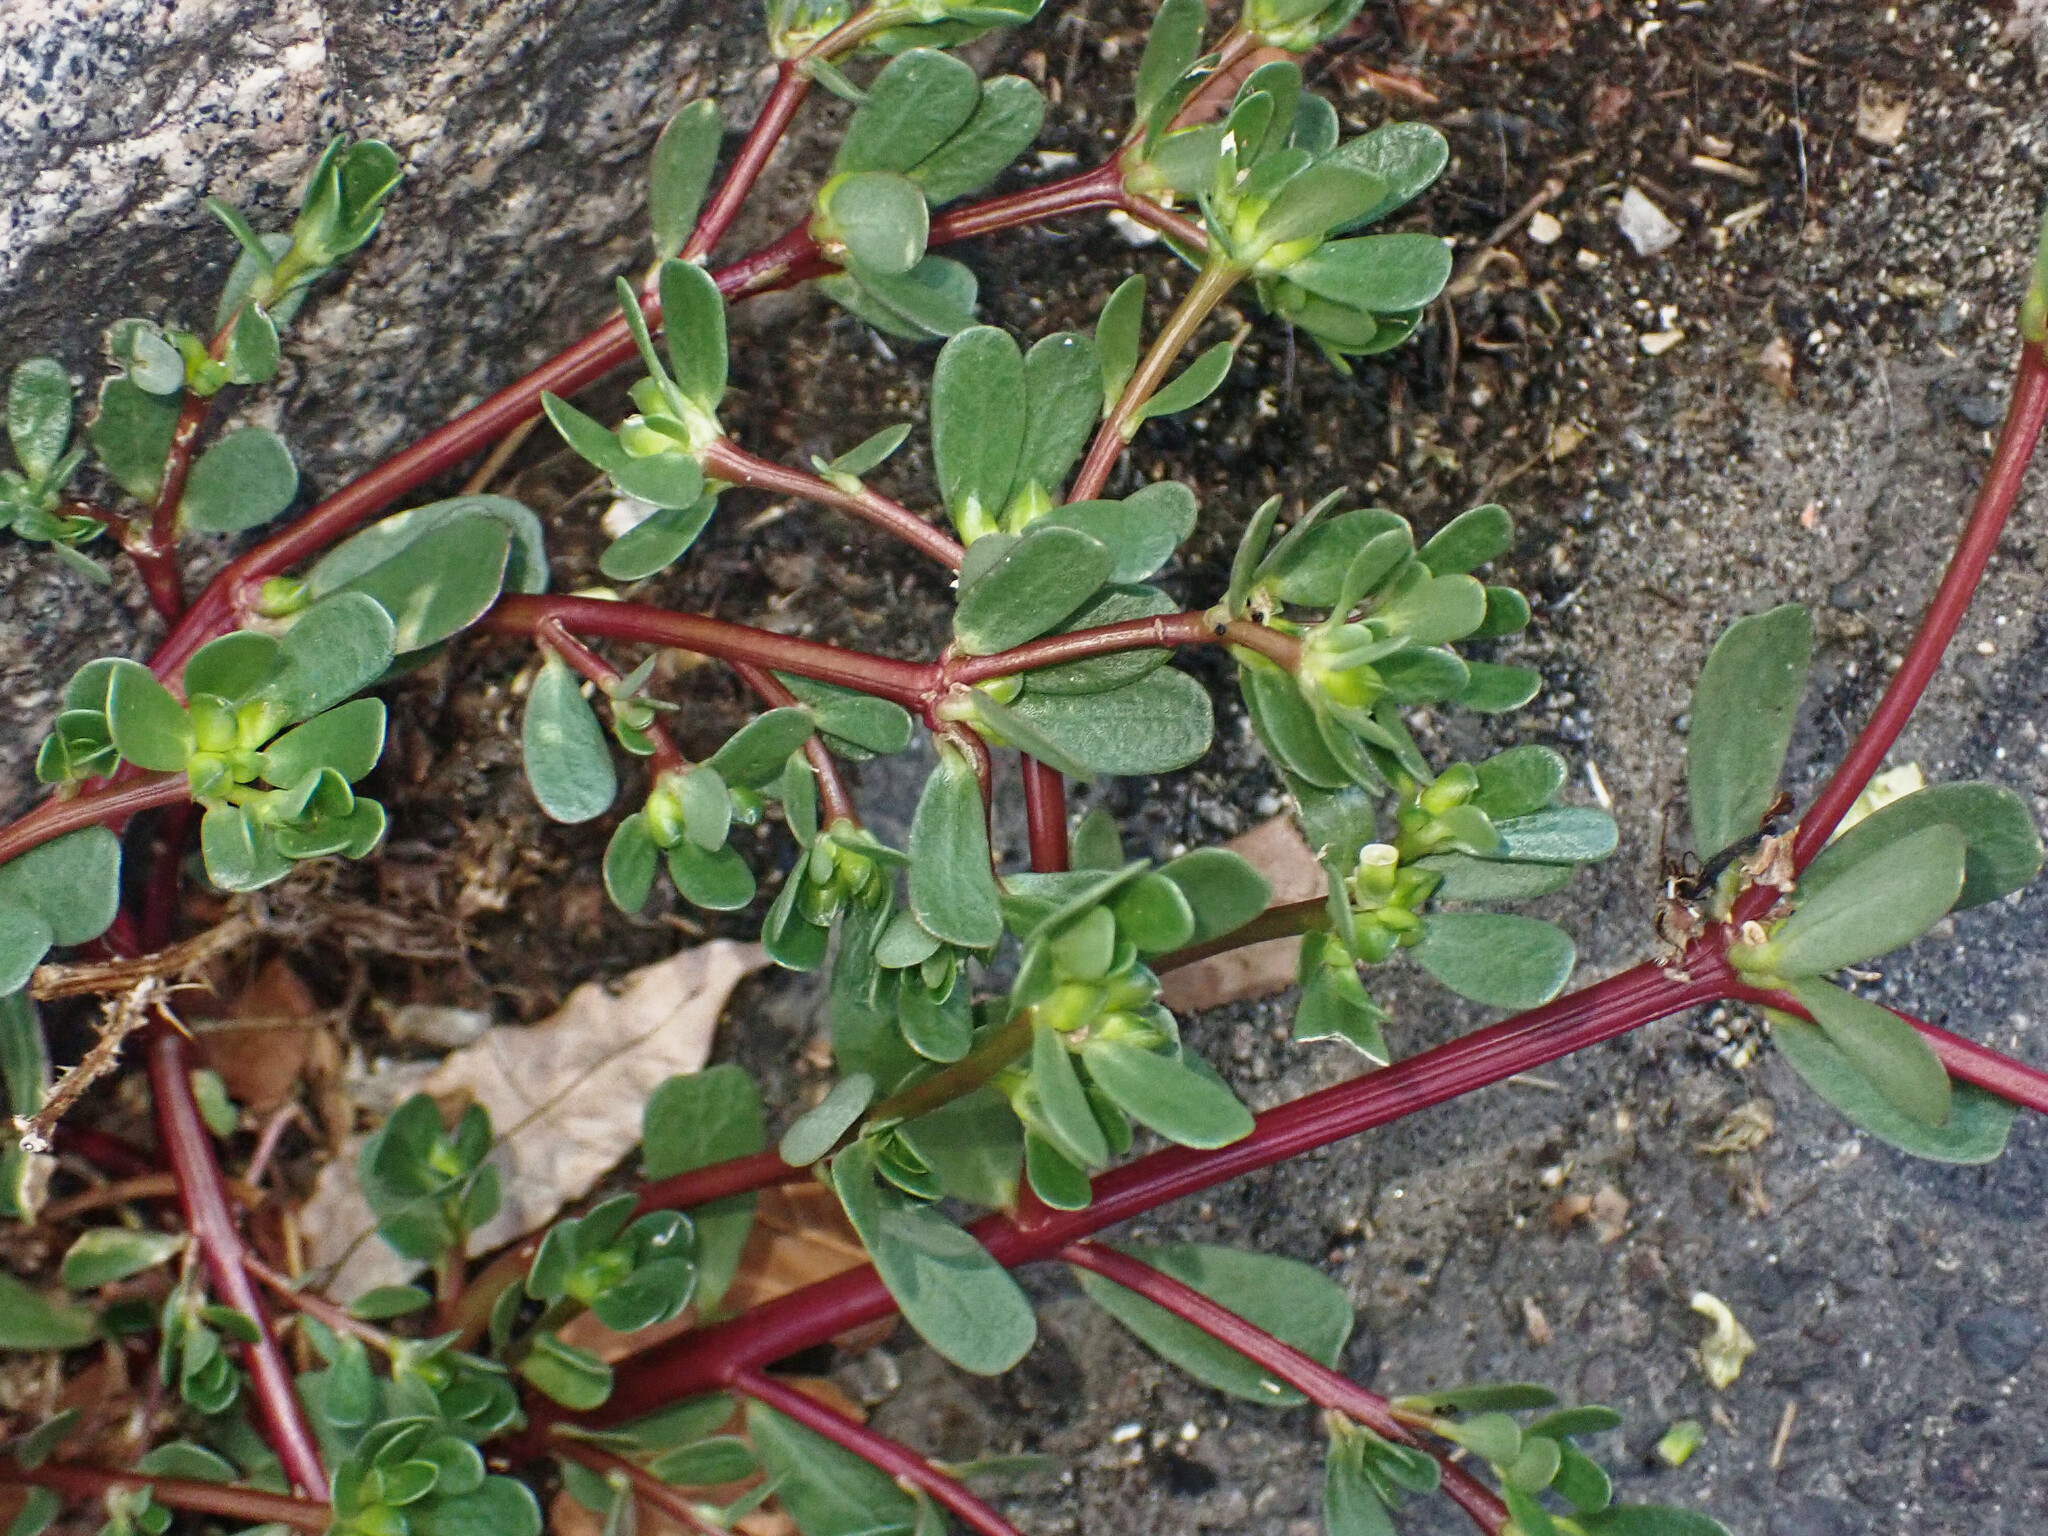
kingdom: Plantae
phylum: Tracheophyta
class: Magnoliopsida
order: Caryophyllales
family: Portulacaceae
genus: Portulaca
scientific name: Portulaca oleracea
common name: Common purslane
